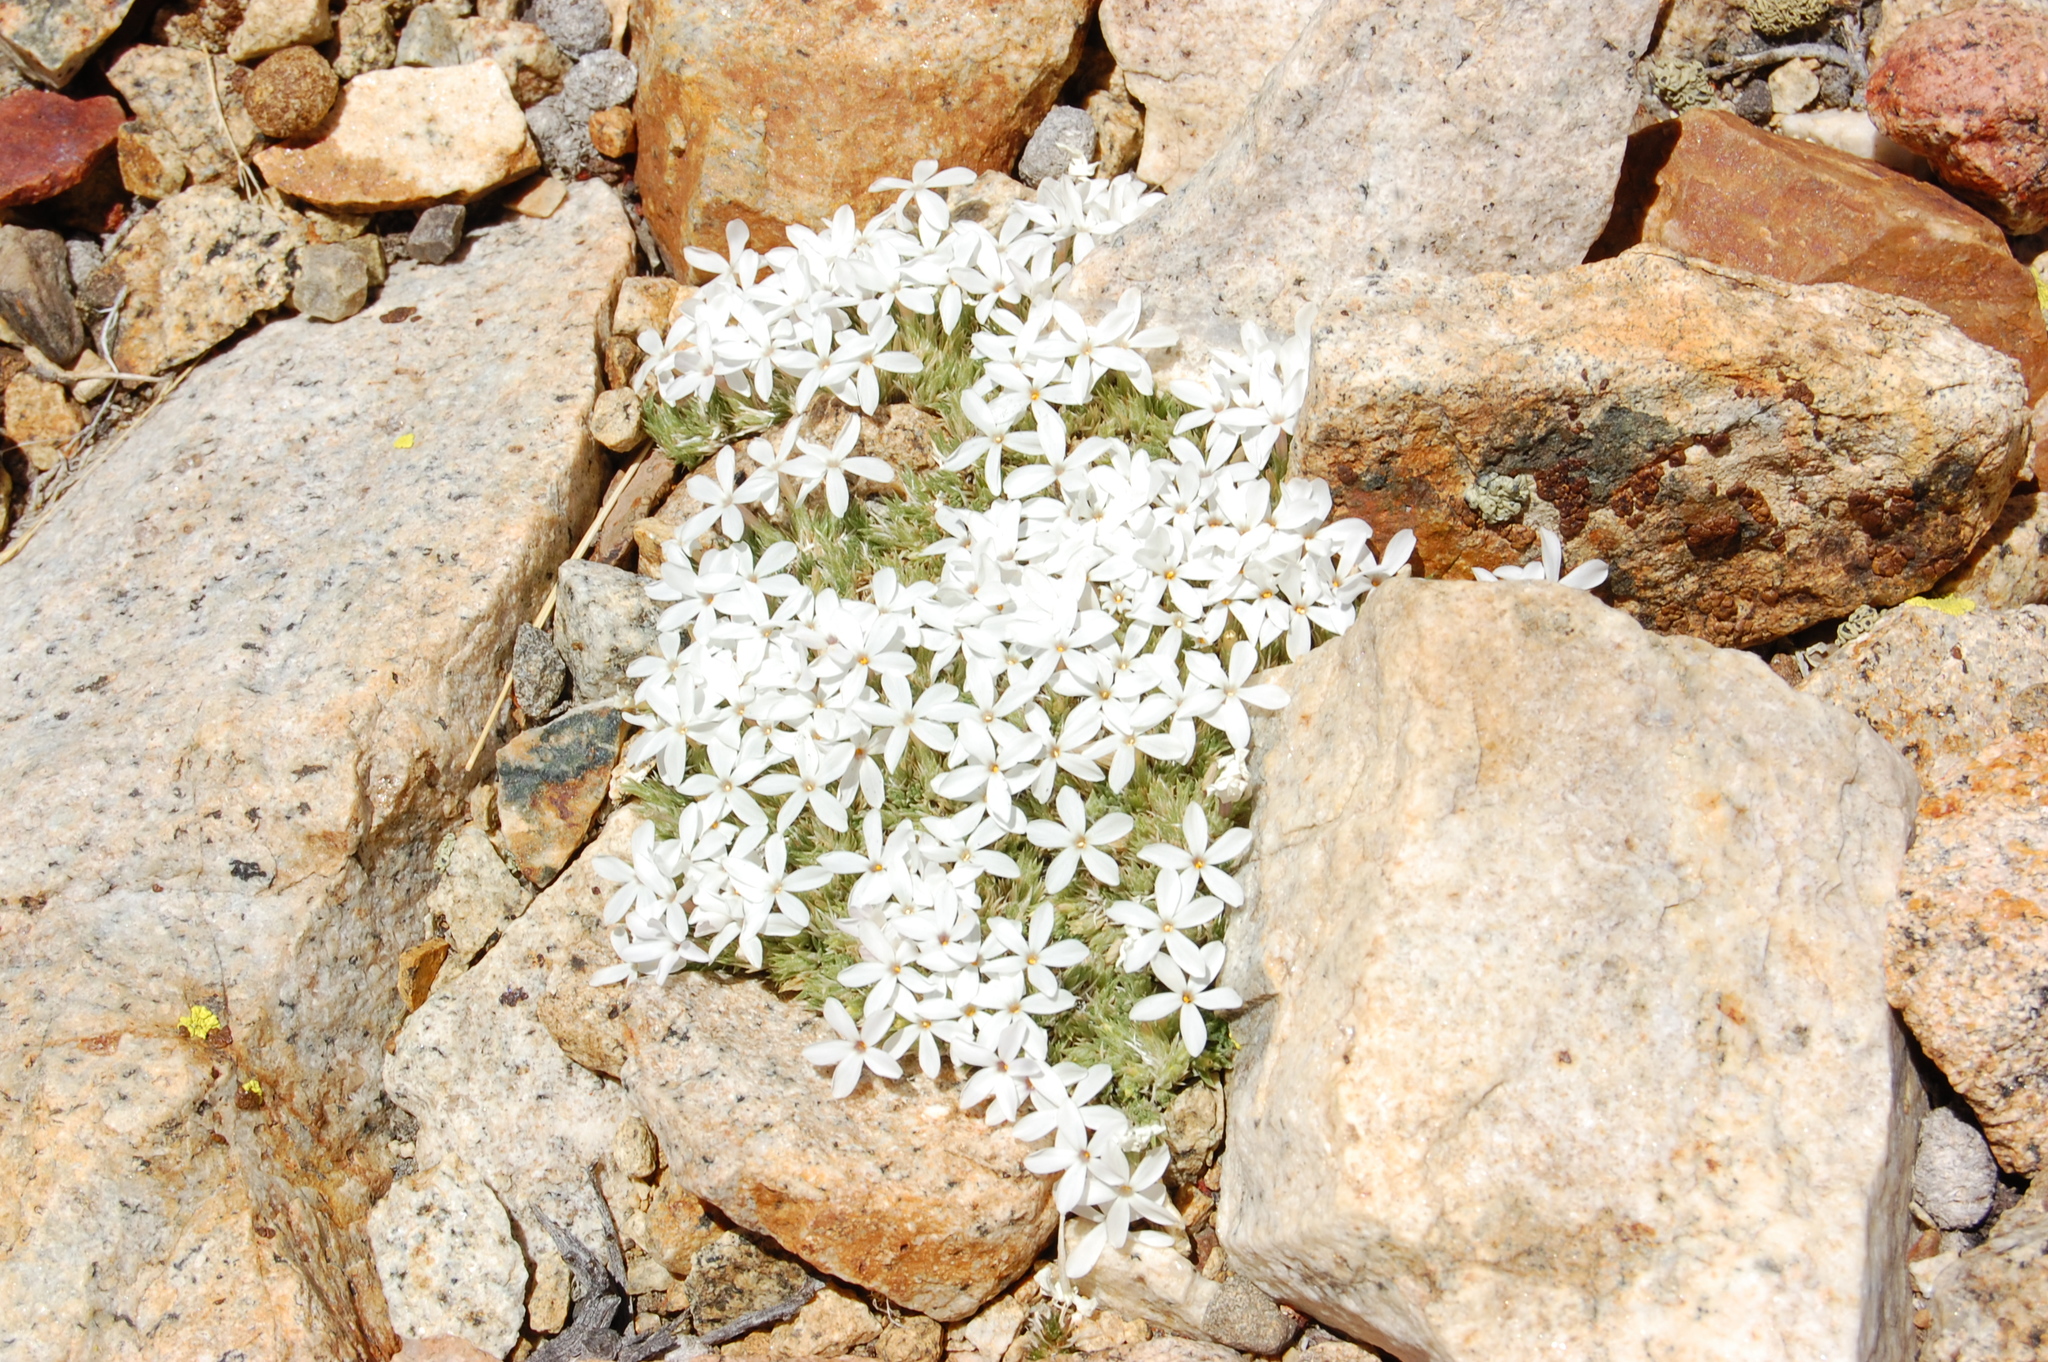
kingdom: Plantae
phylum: Tracheophyta
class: Magnoliopsida
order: Ericales
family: Polemoniaceae
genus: Phlox
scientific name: Phlox condensata
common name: Compact phlox
